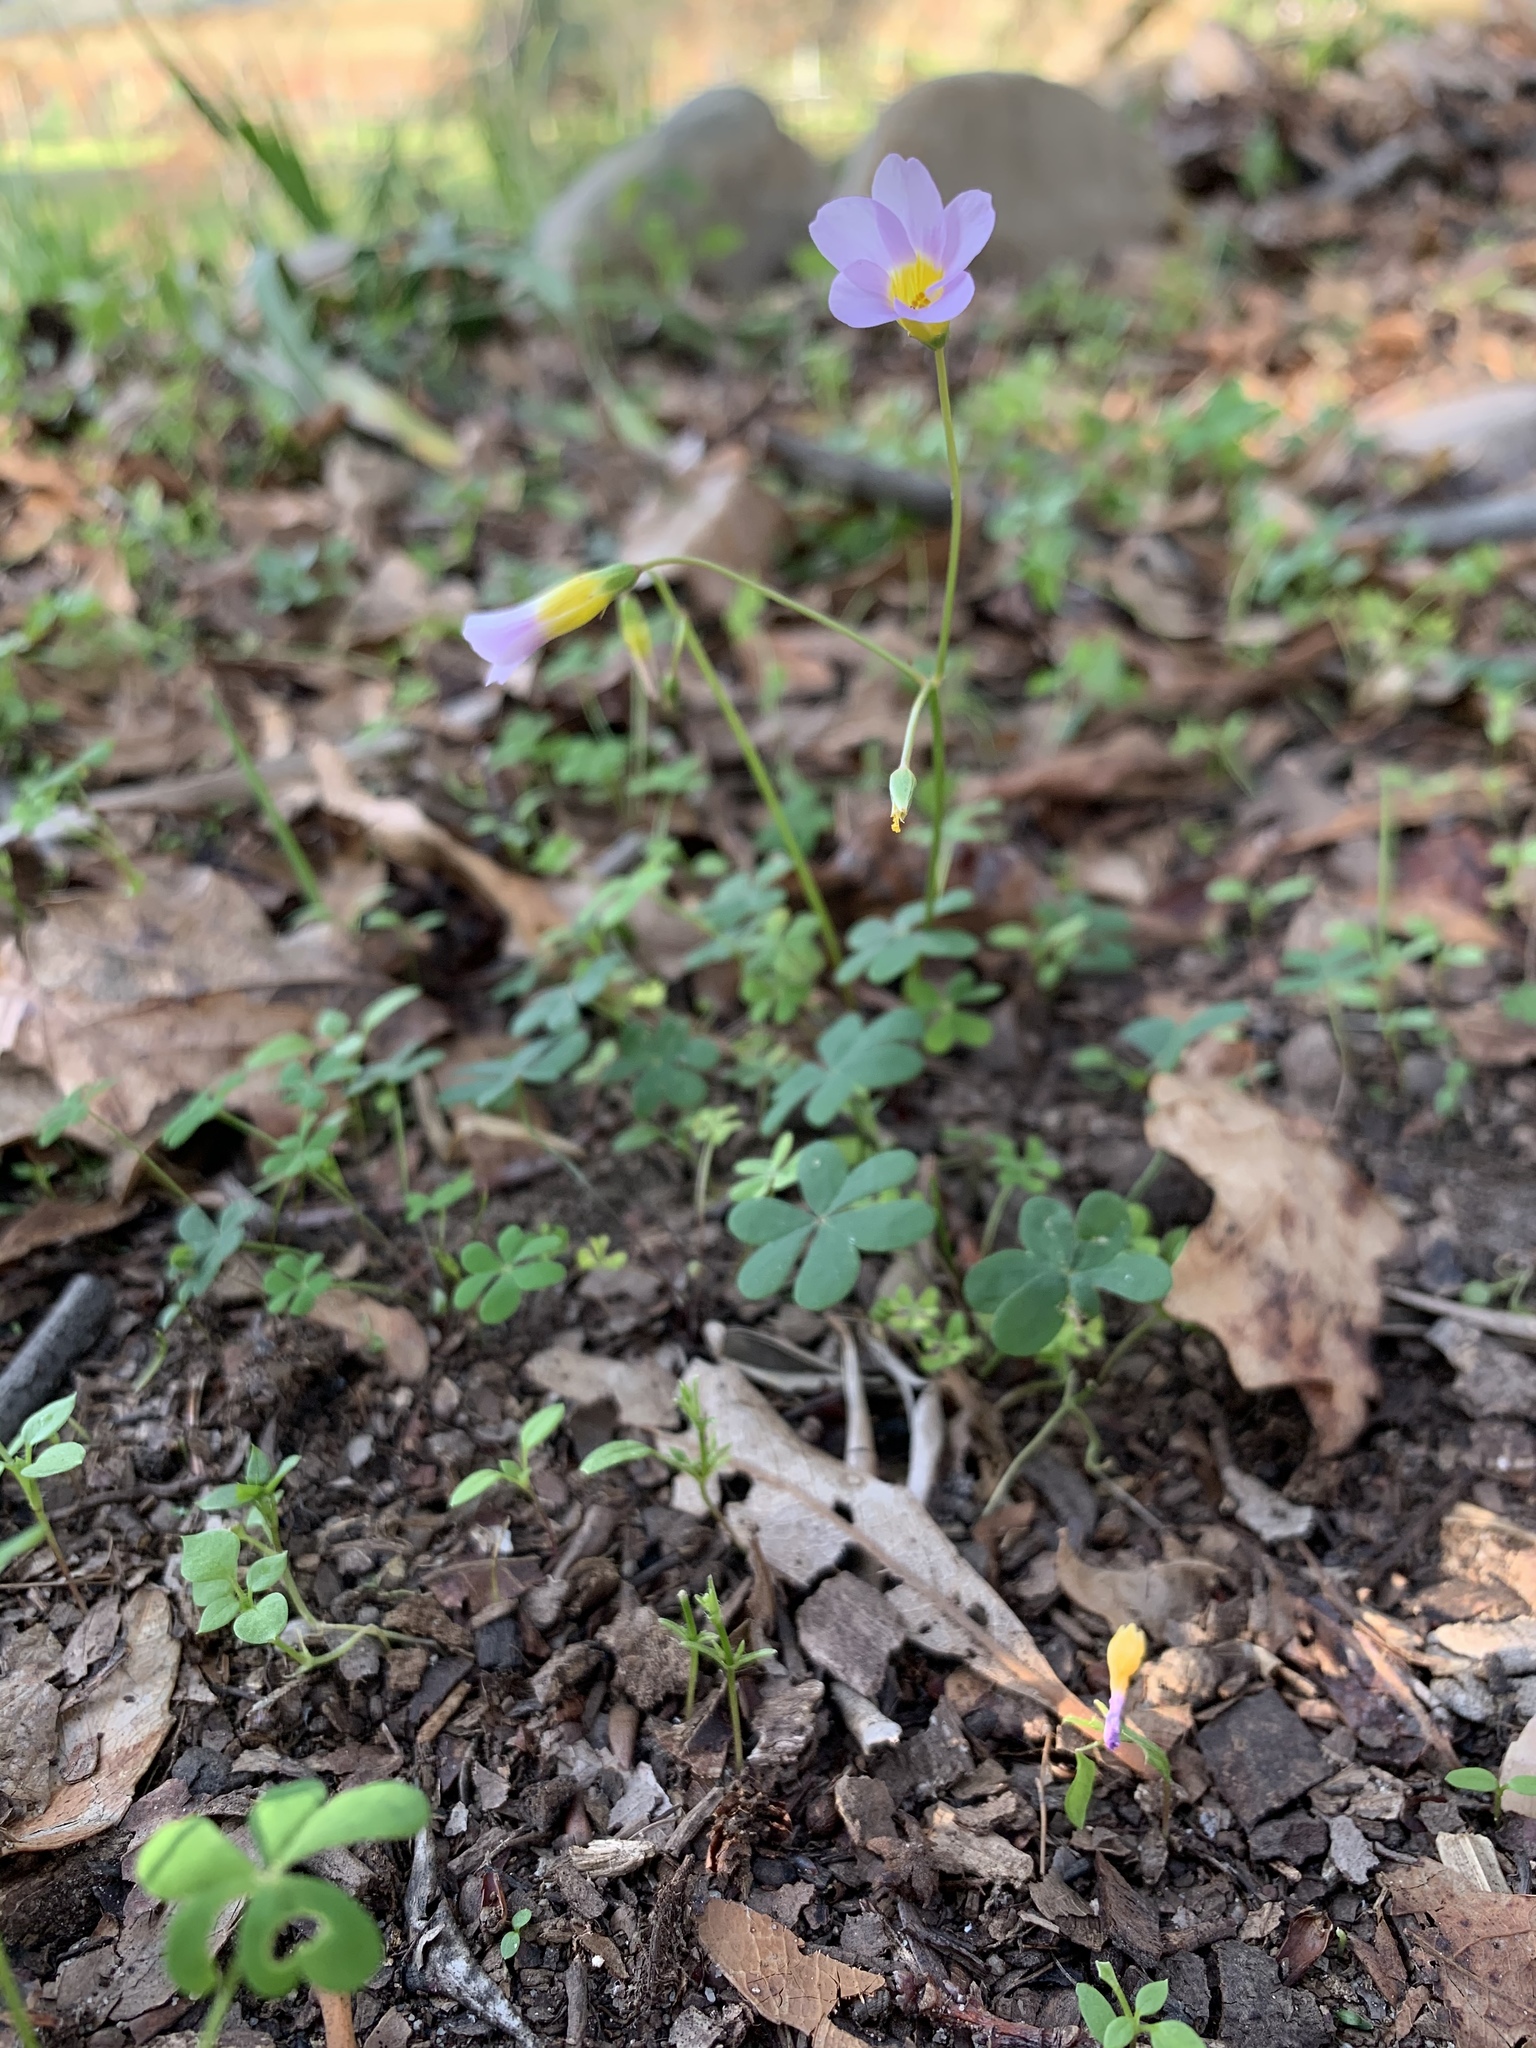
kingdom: Plantae
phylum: Tracheophyta
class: Magnoliopsida
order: Oxalidales
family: Oxalidaceae
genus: Oxalis
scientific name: Oxalis caprina
